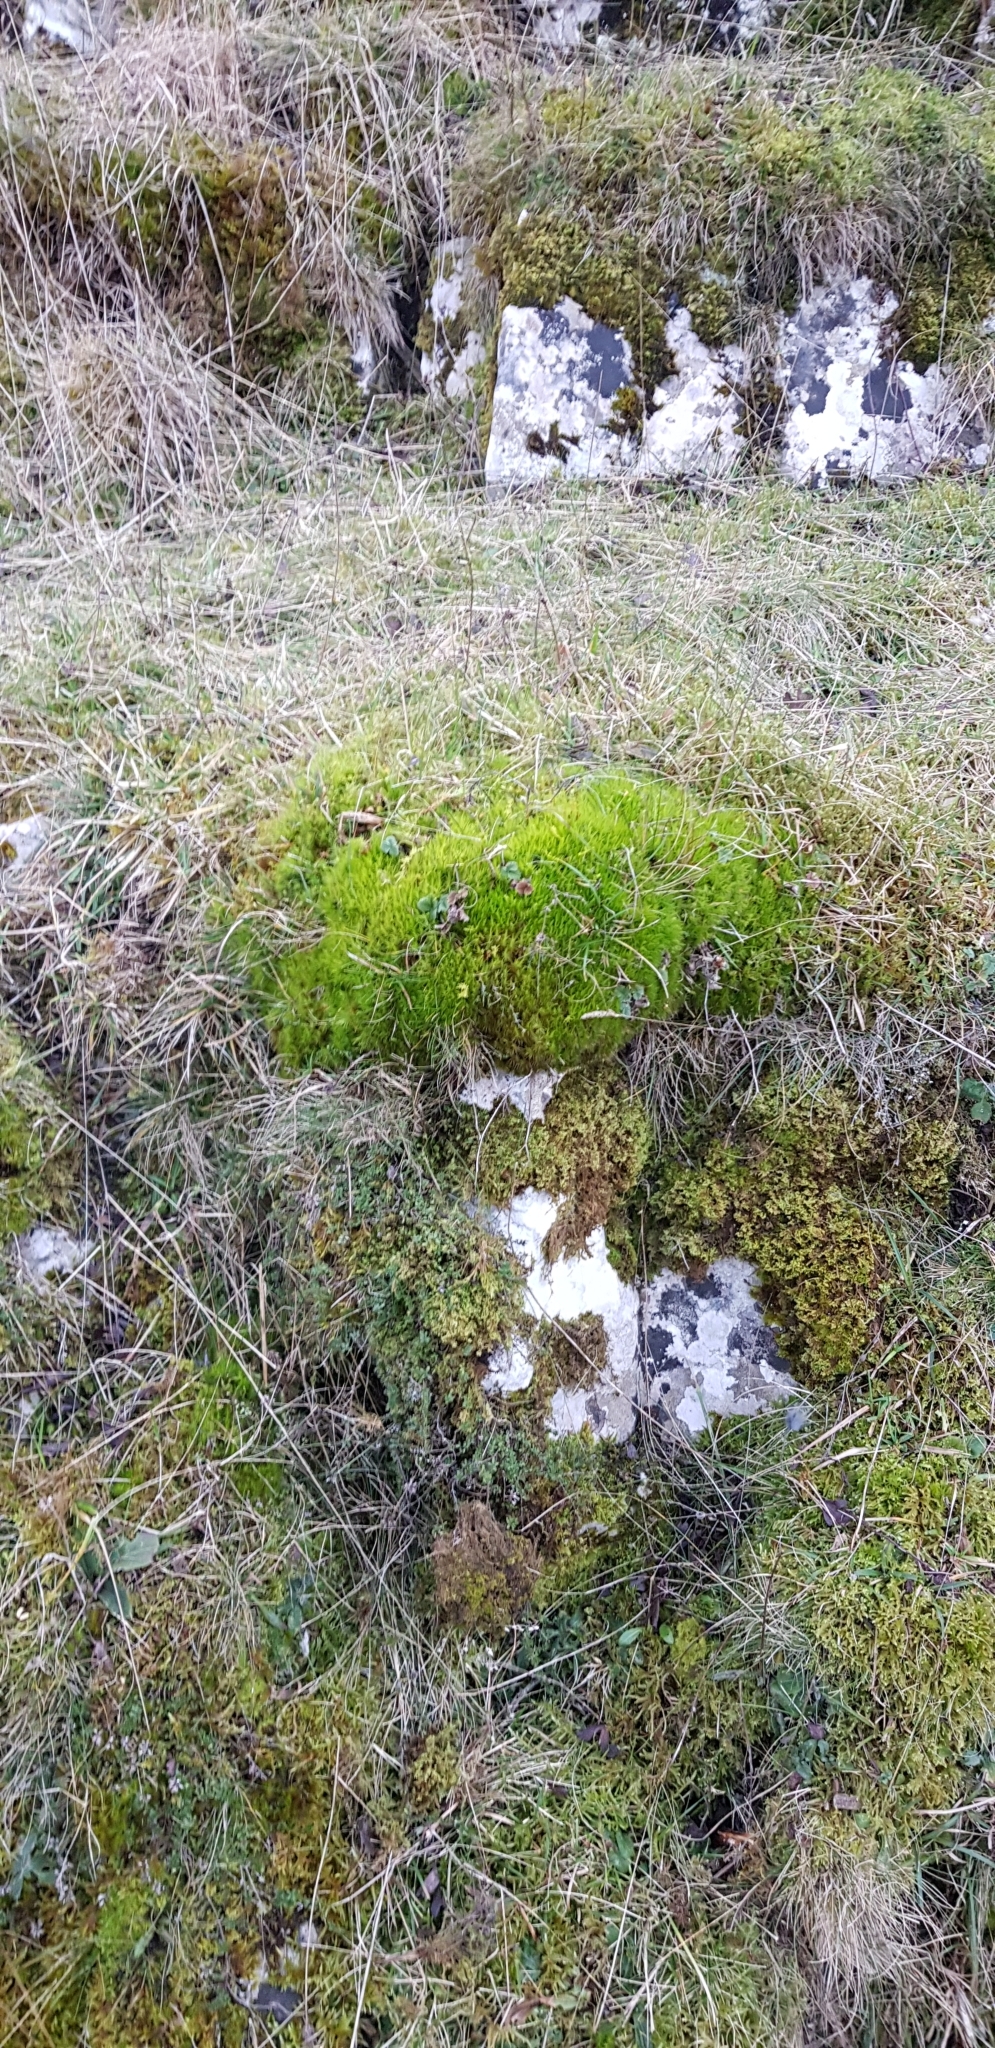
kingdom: Plantae
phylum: Bryophyta
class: Bryopsida
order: Dicranales
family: Dicranaceae
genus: Dicranum
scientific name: Dicranum scoparium
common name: Broom fork-moss
